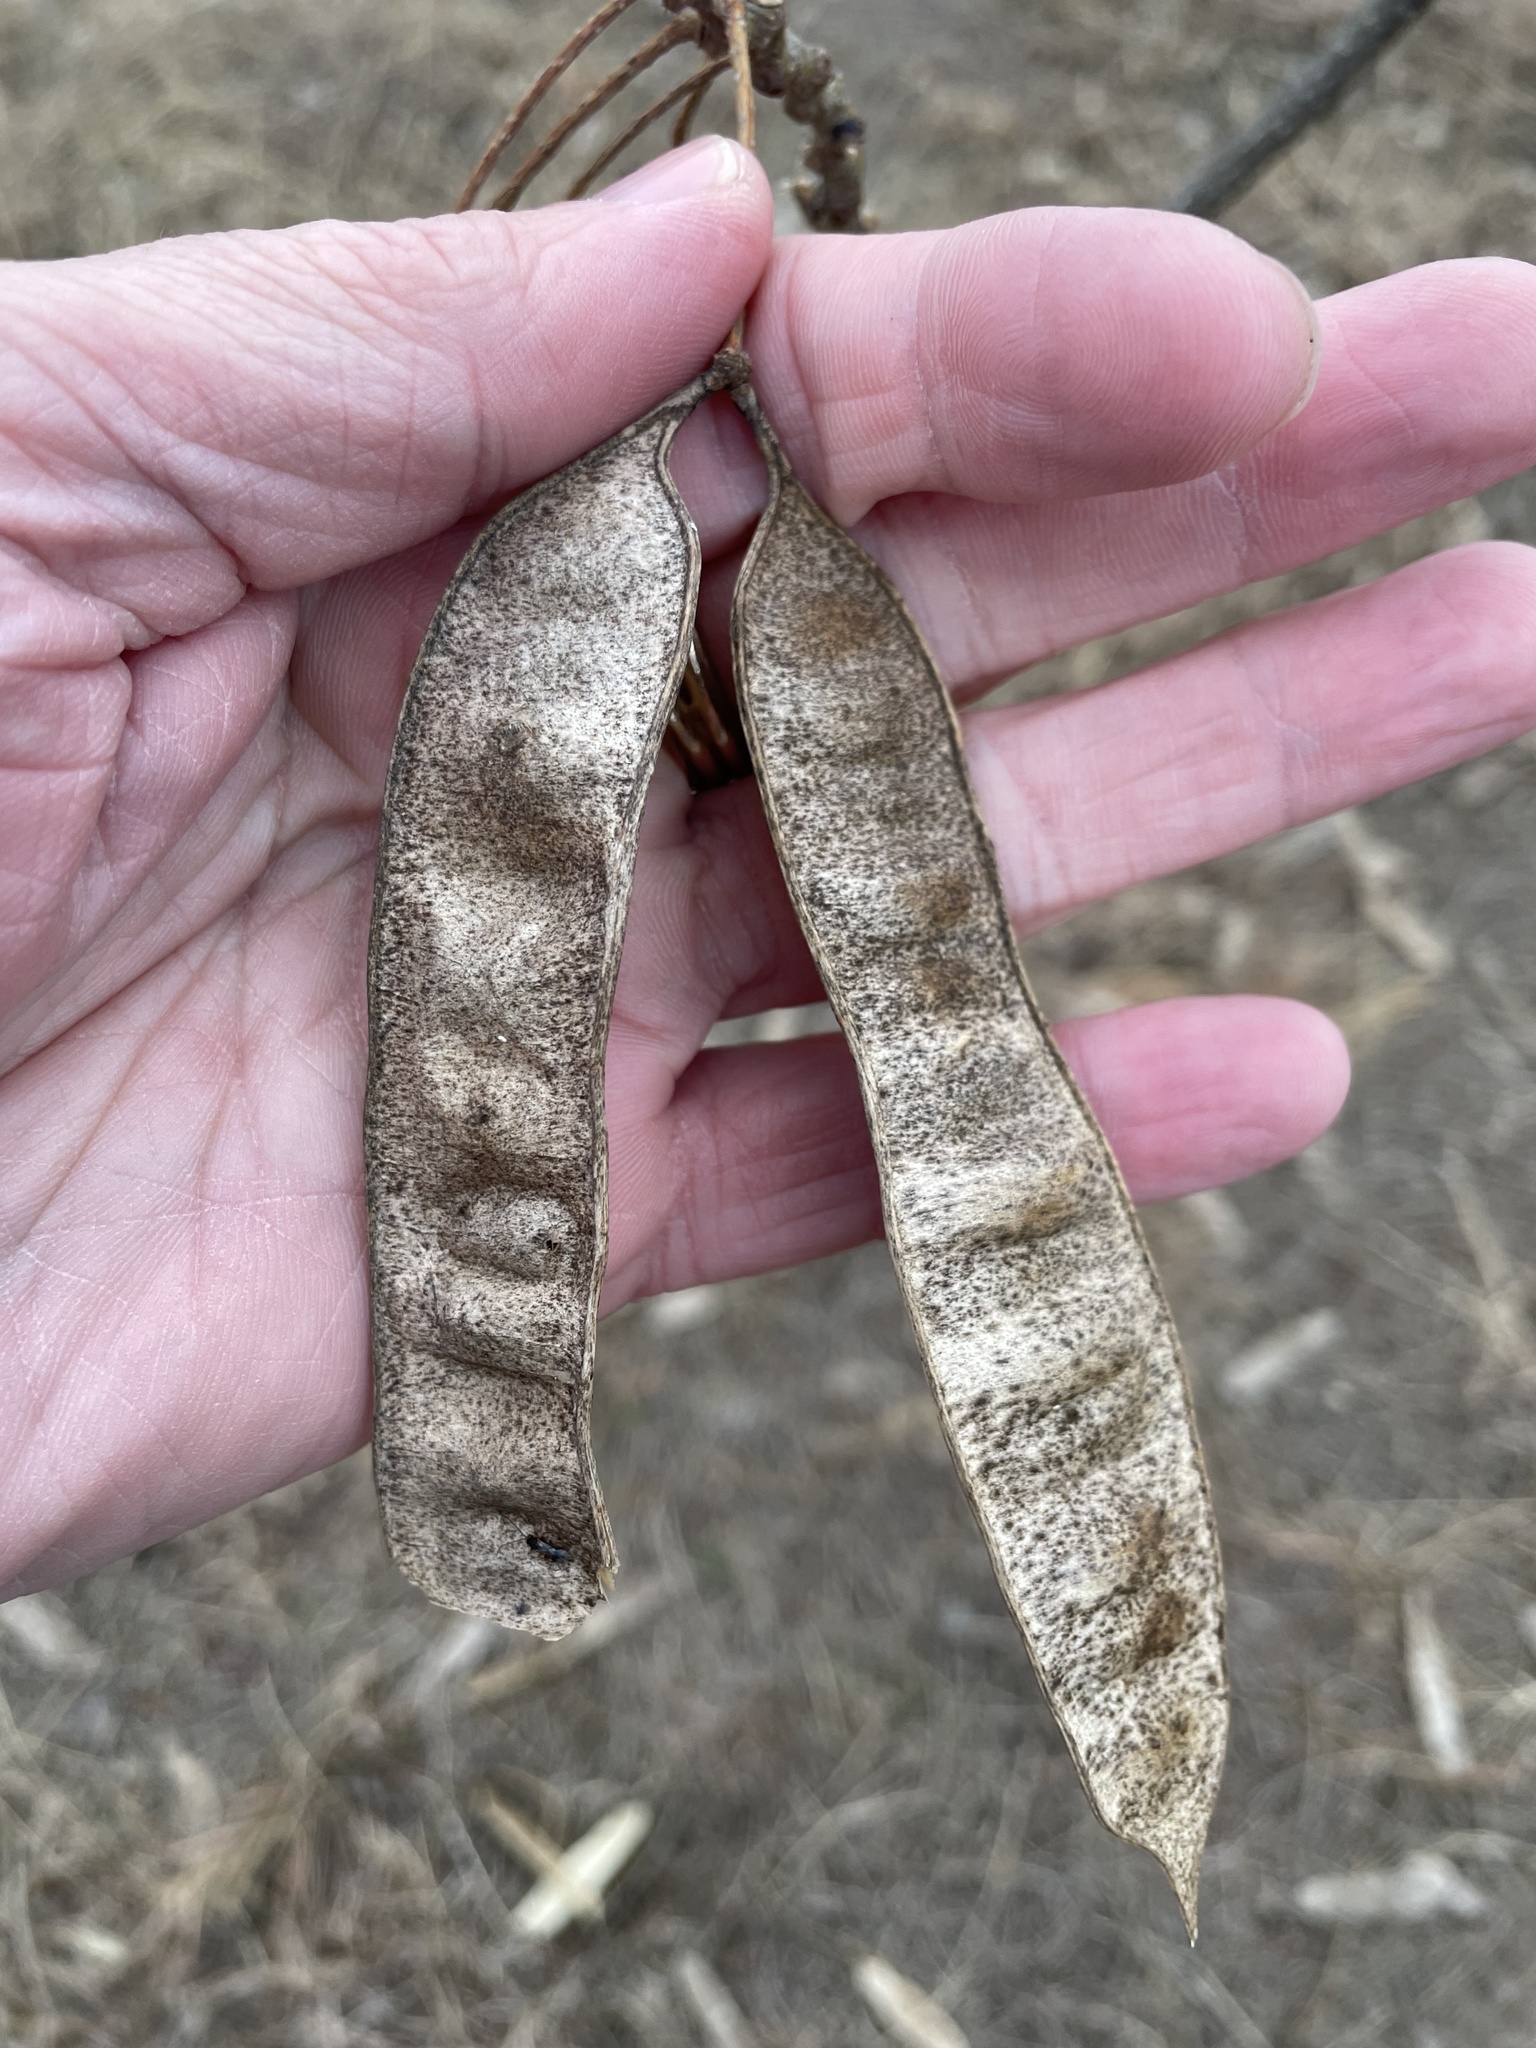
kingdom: Plantae
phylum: Tracheophyta
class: Magnoliopsida
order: Fabales
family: Fabaceae
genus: Albizia
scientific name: Albizia julibrissin
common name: Silktree
